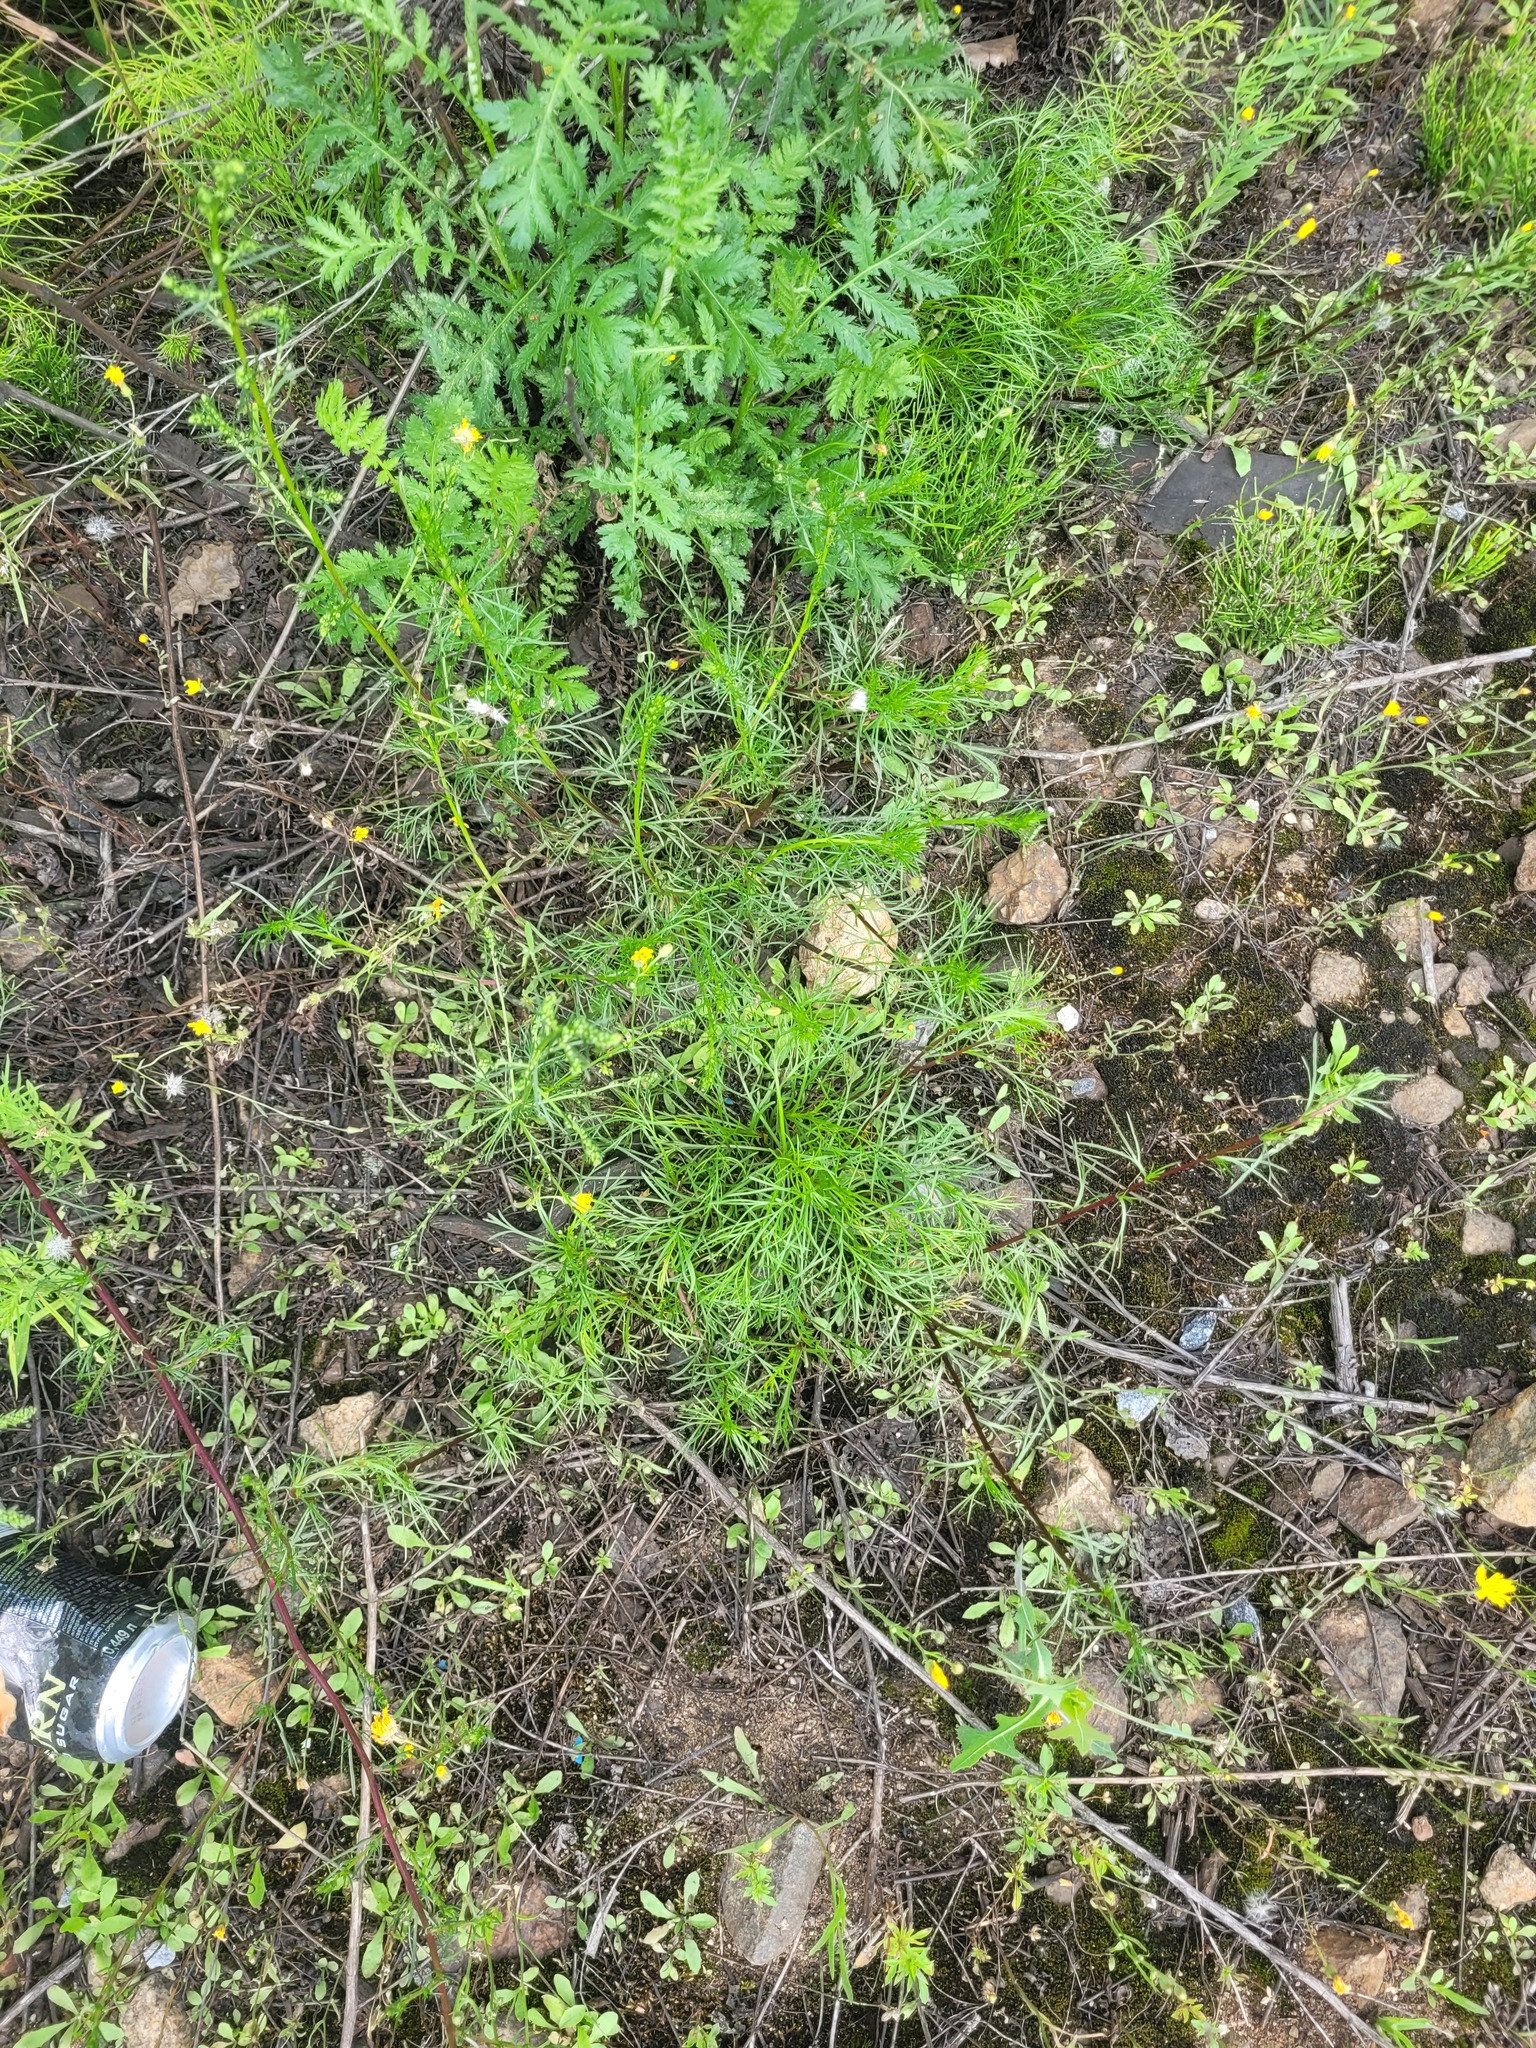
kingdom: Plantae
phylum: Tracheophyta
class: Magnoliopsida
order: Asterales
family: Asteraceae
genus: Artemisia
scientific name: Artemisia campestris
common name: Field wormwood
